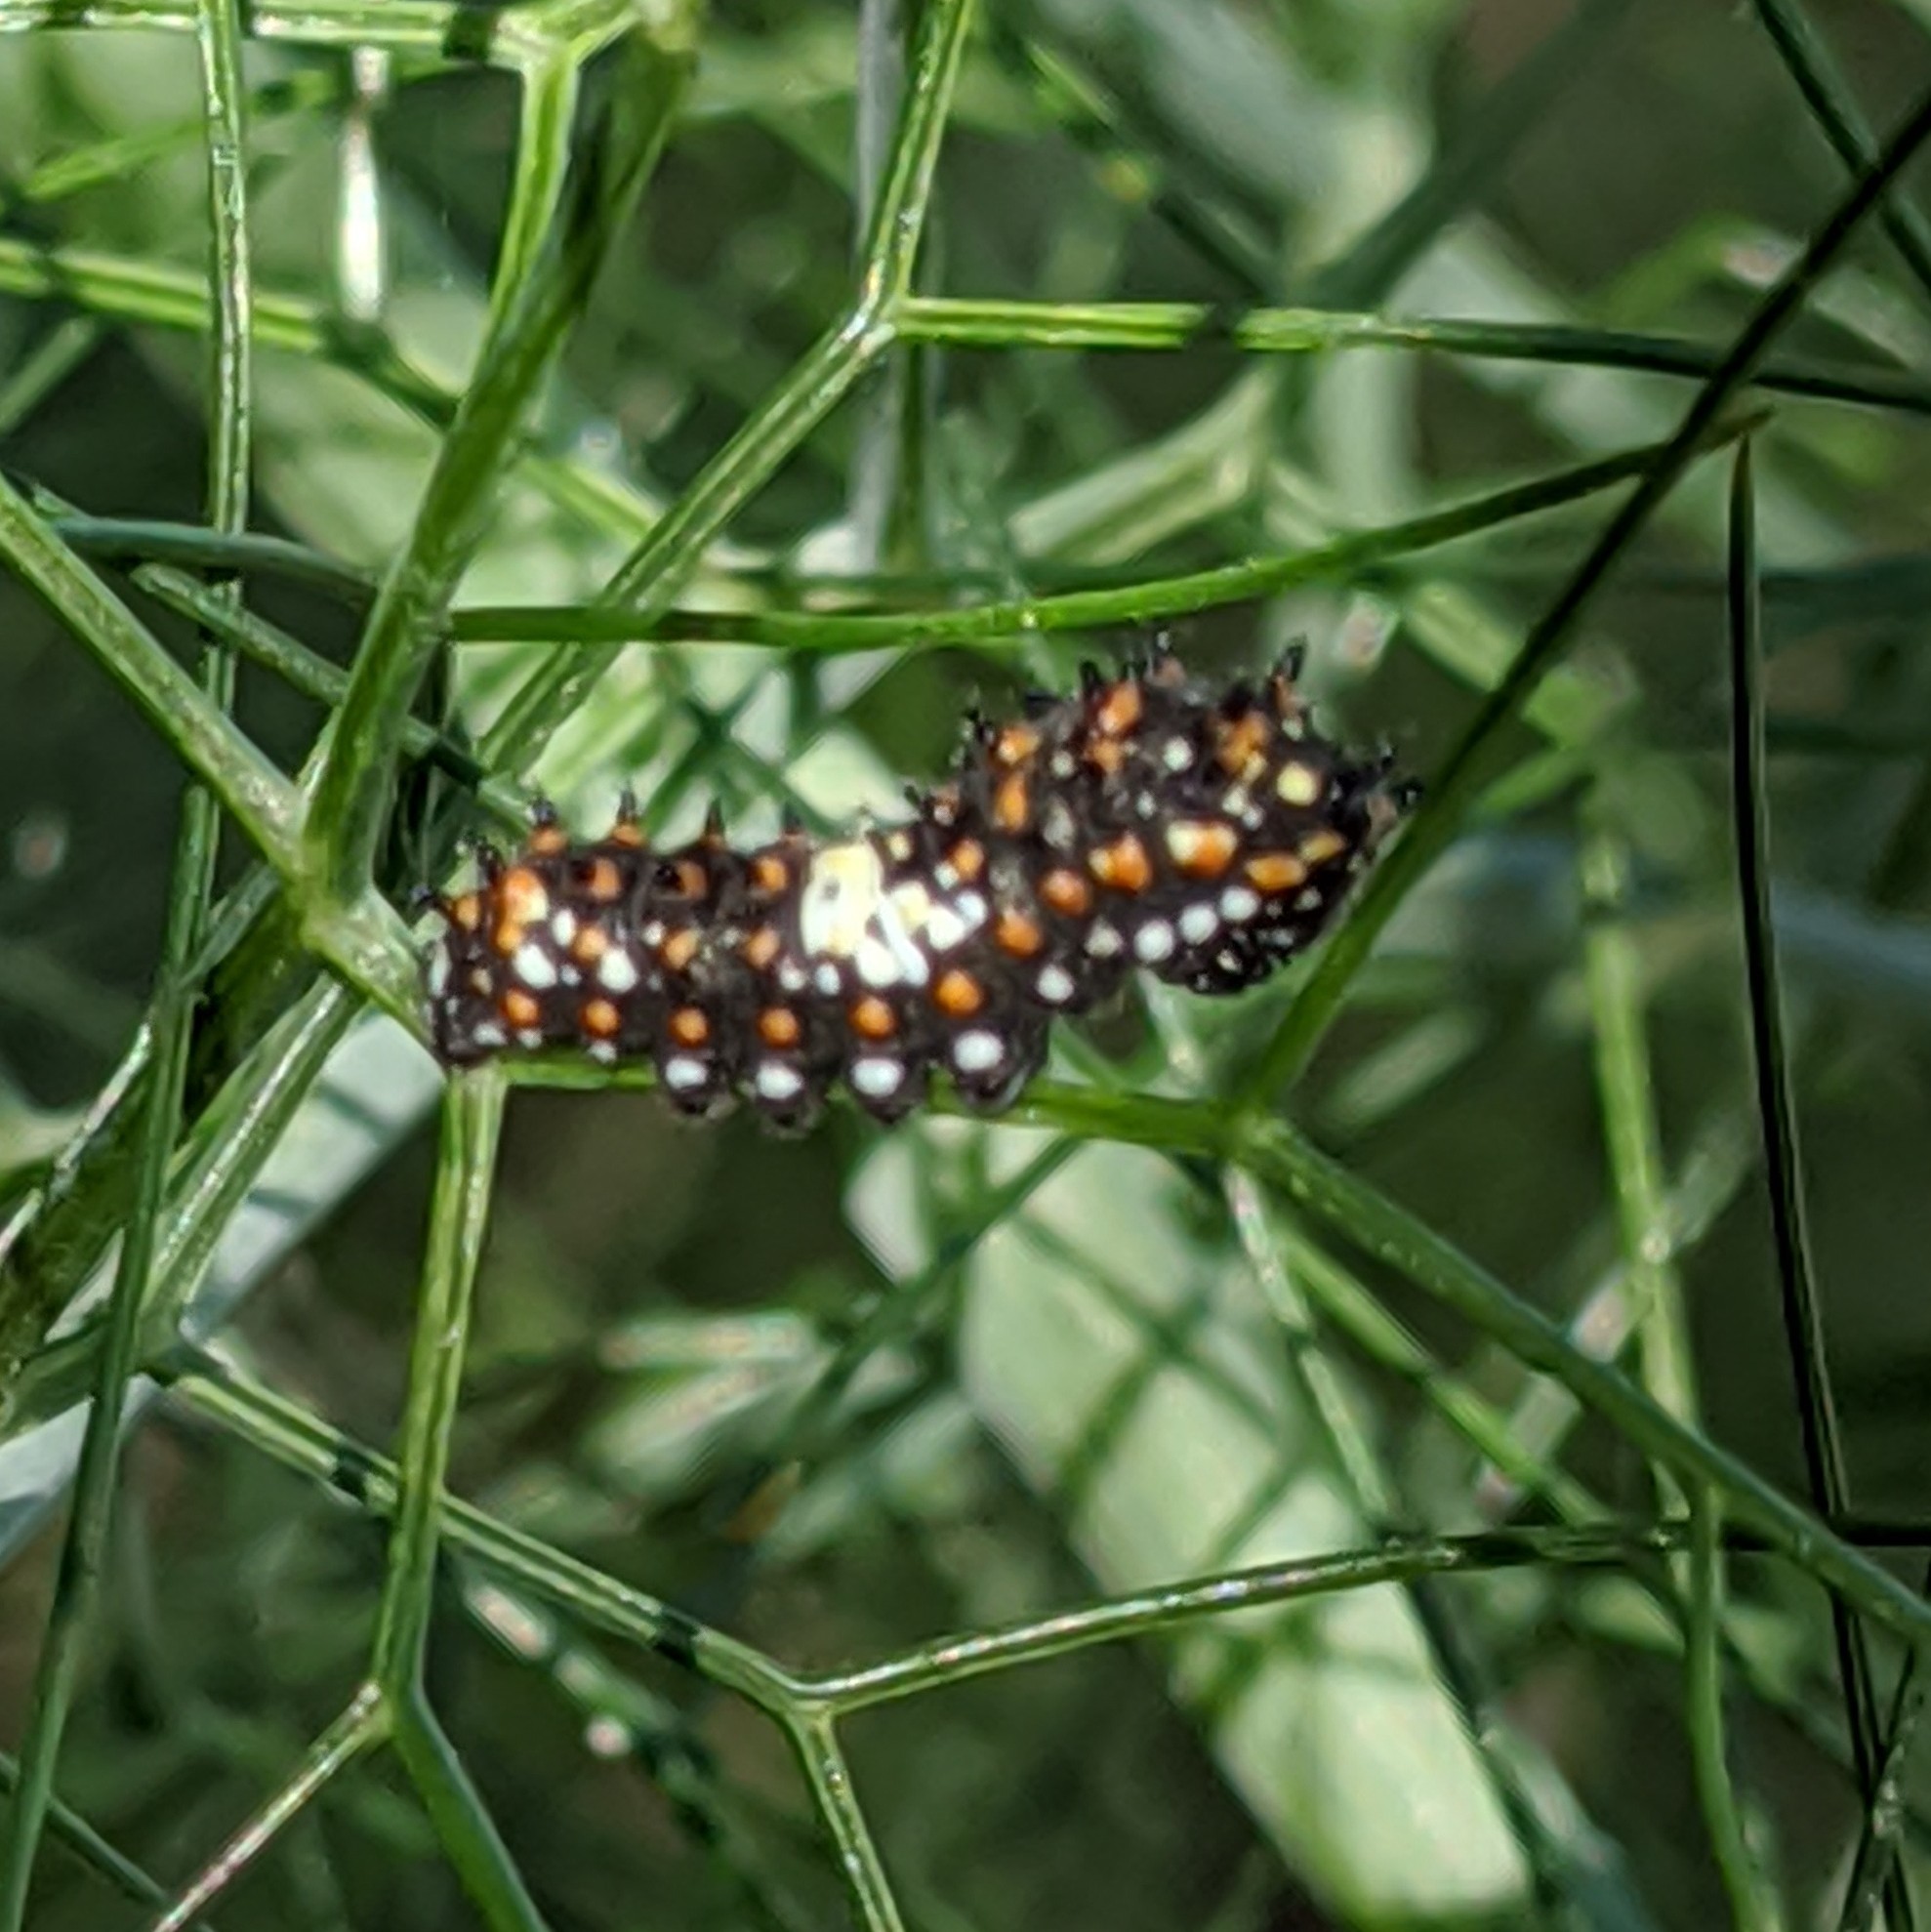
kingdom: Animalia
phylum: Arthropoda
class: Insecta
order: Lepidoptera
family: Papilionidae
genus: Papilio
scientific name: Papilio zelicaon
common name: Anise swallowtail
